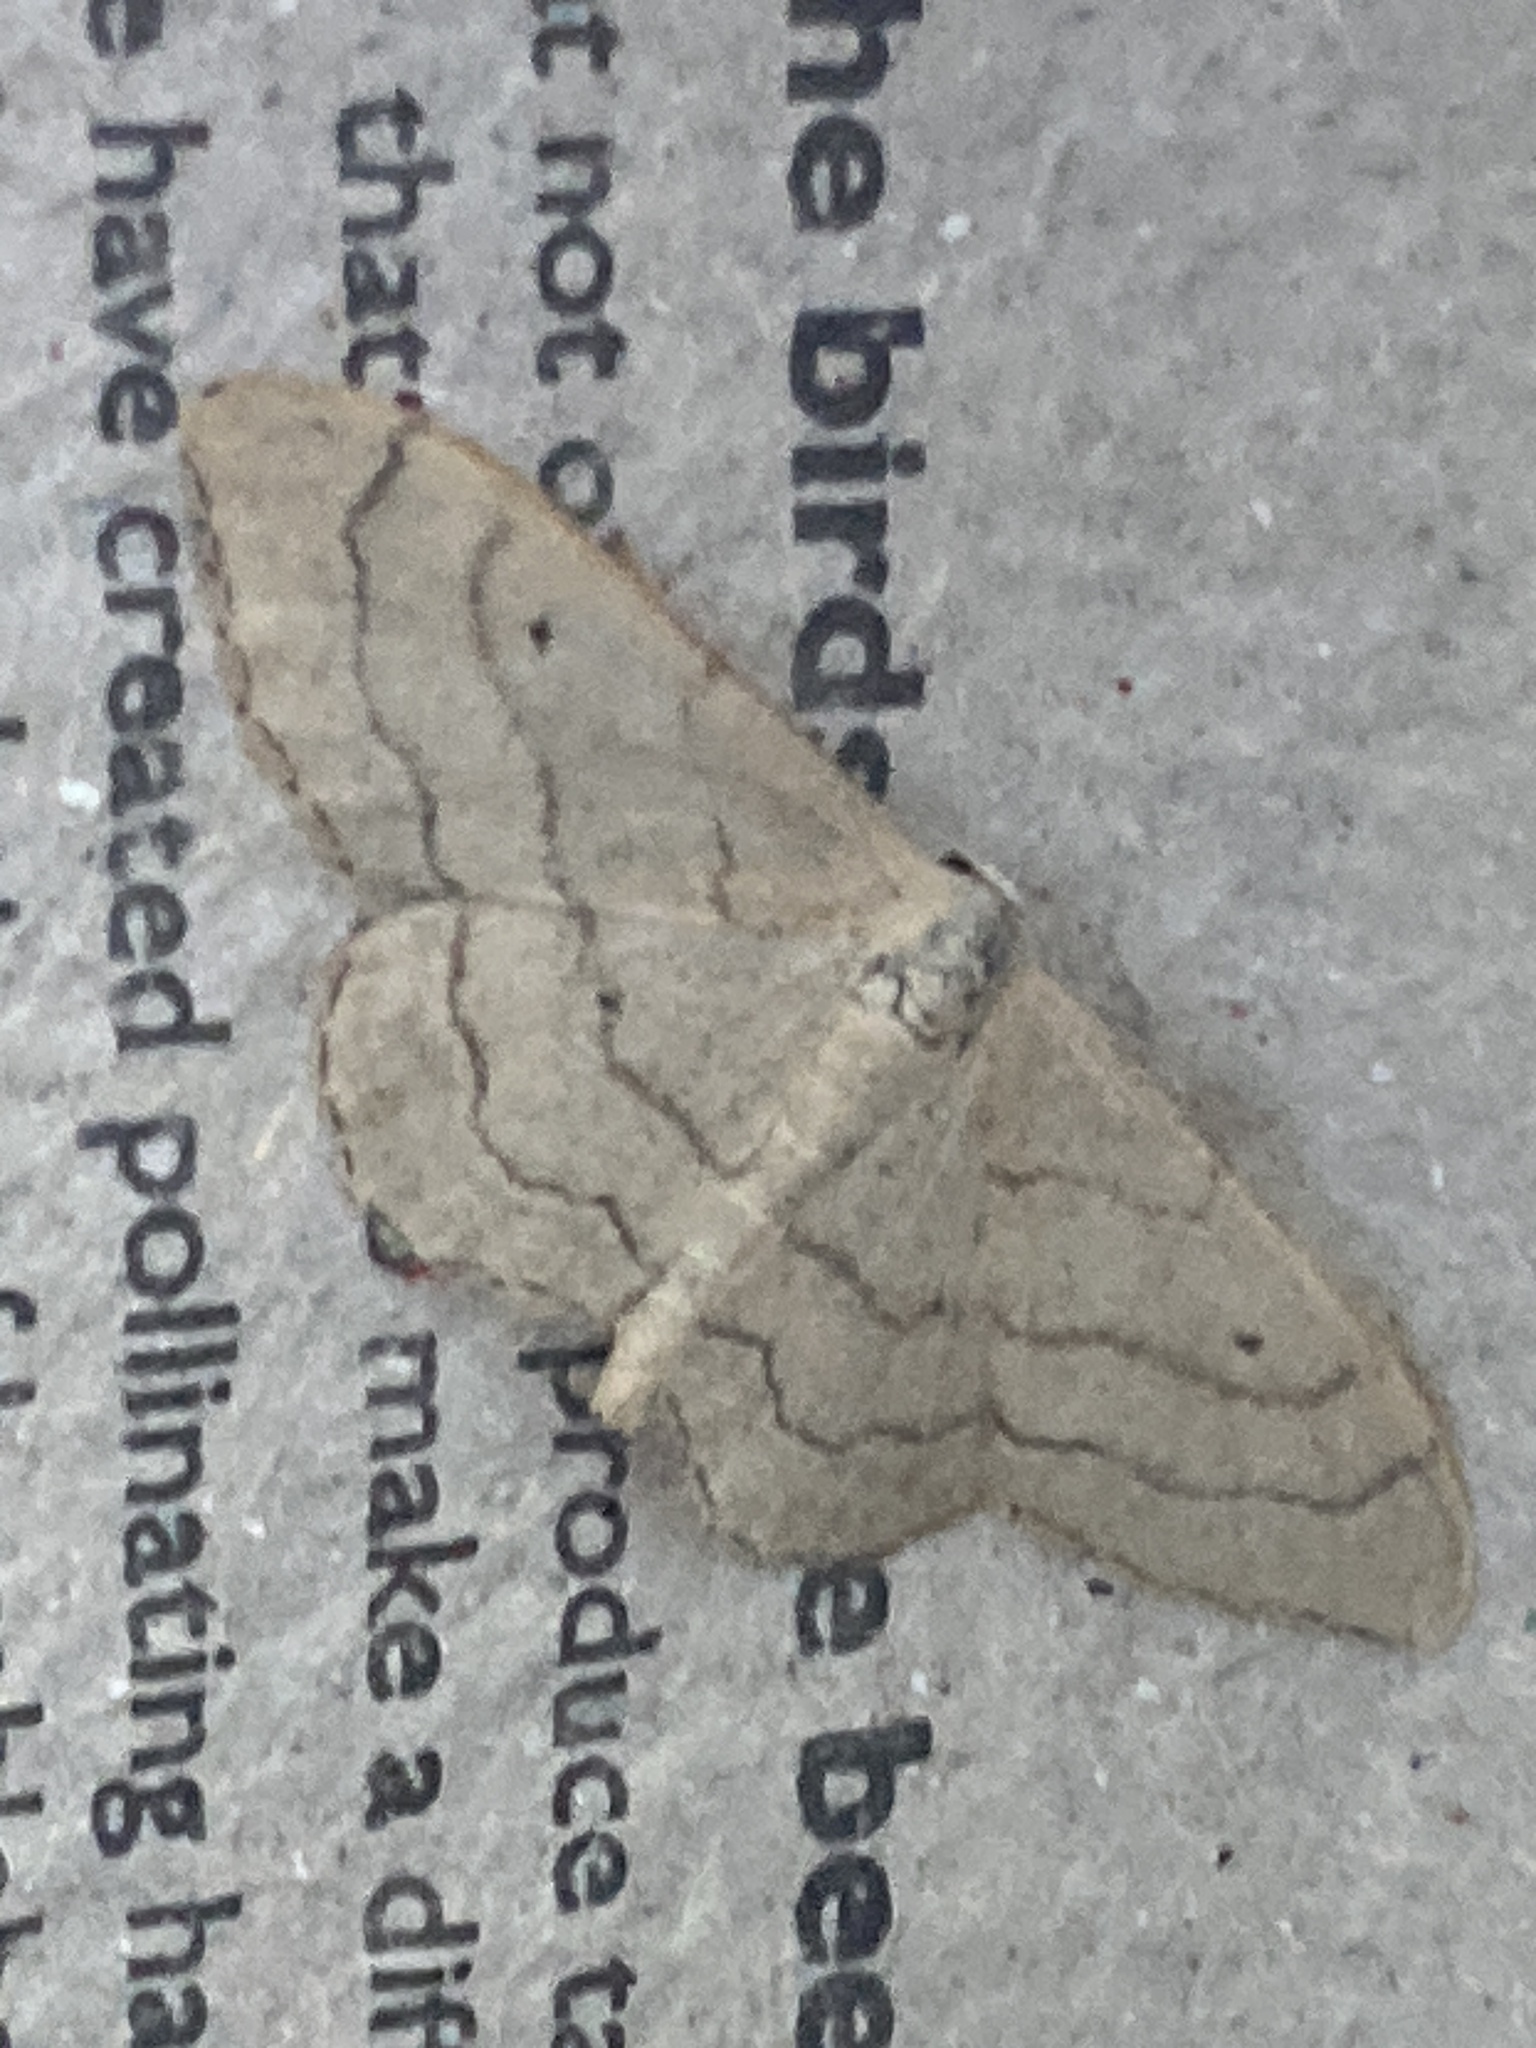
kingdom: Animalia
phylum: Arthropoda
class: Insecta
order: Lepidoptera
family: Geometridae
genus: Idaea
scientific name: Idaea aversata
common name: Riband wave
